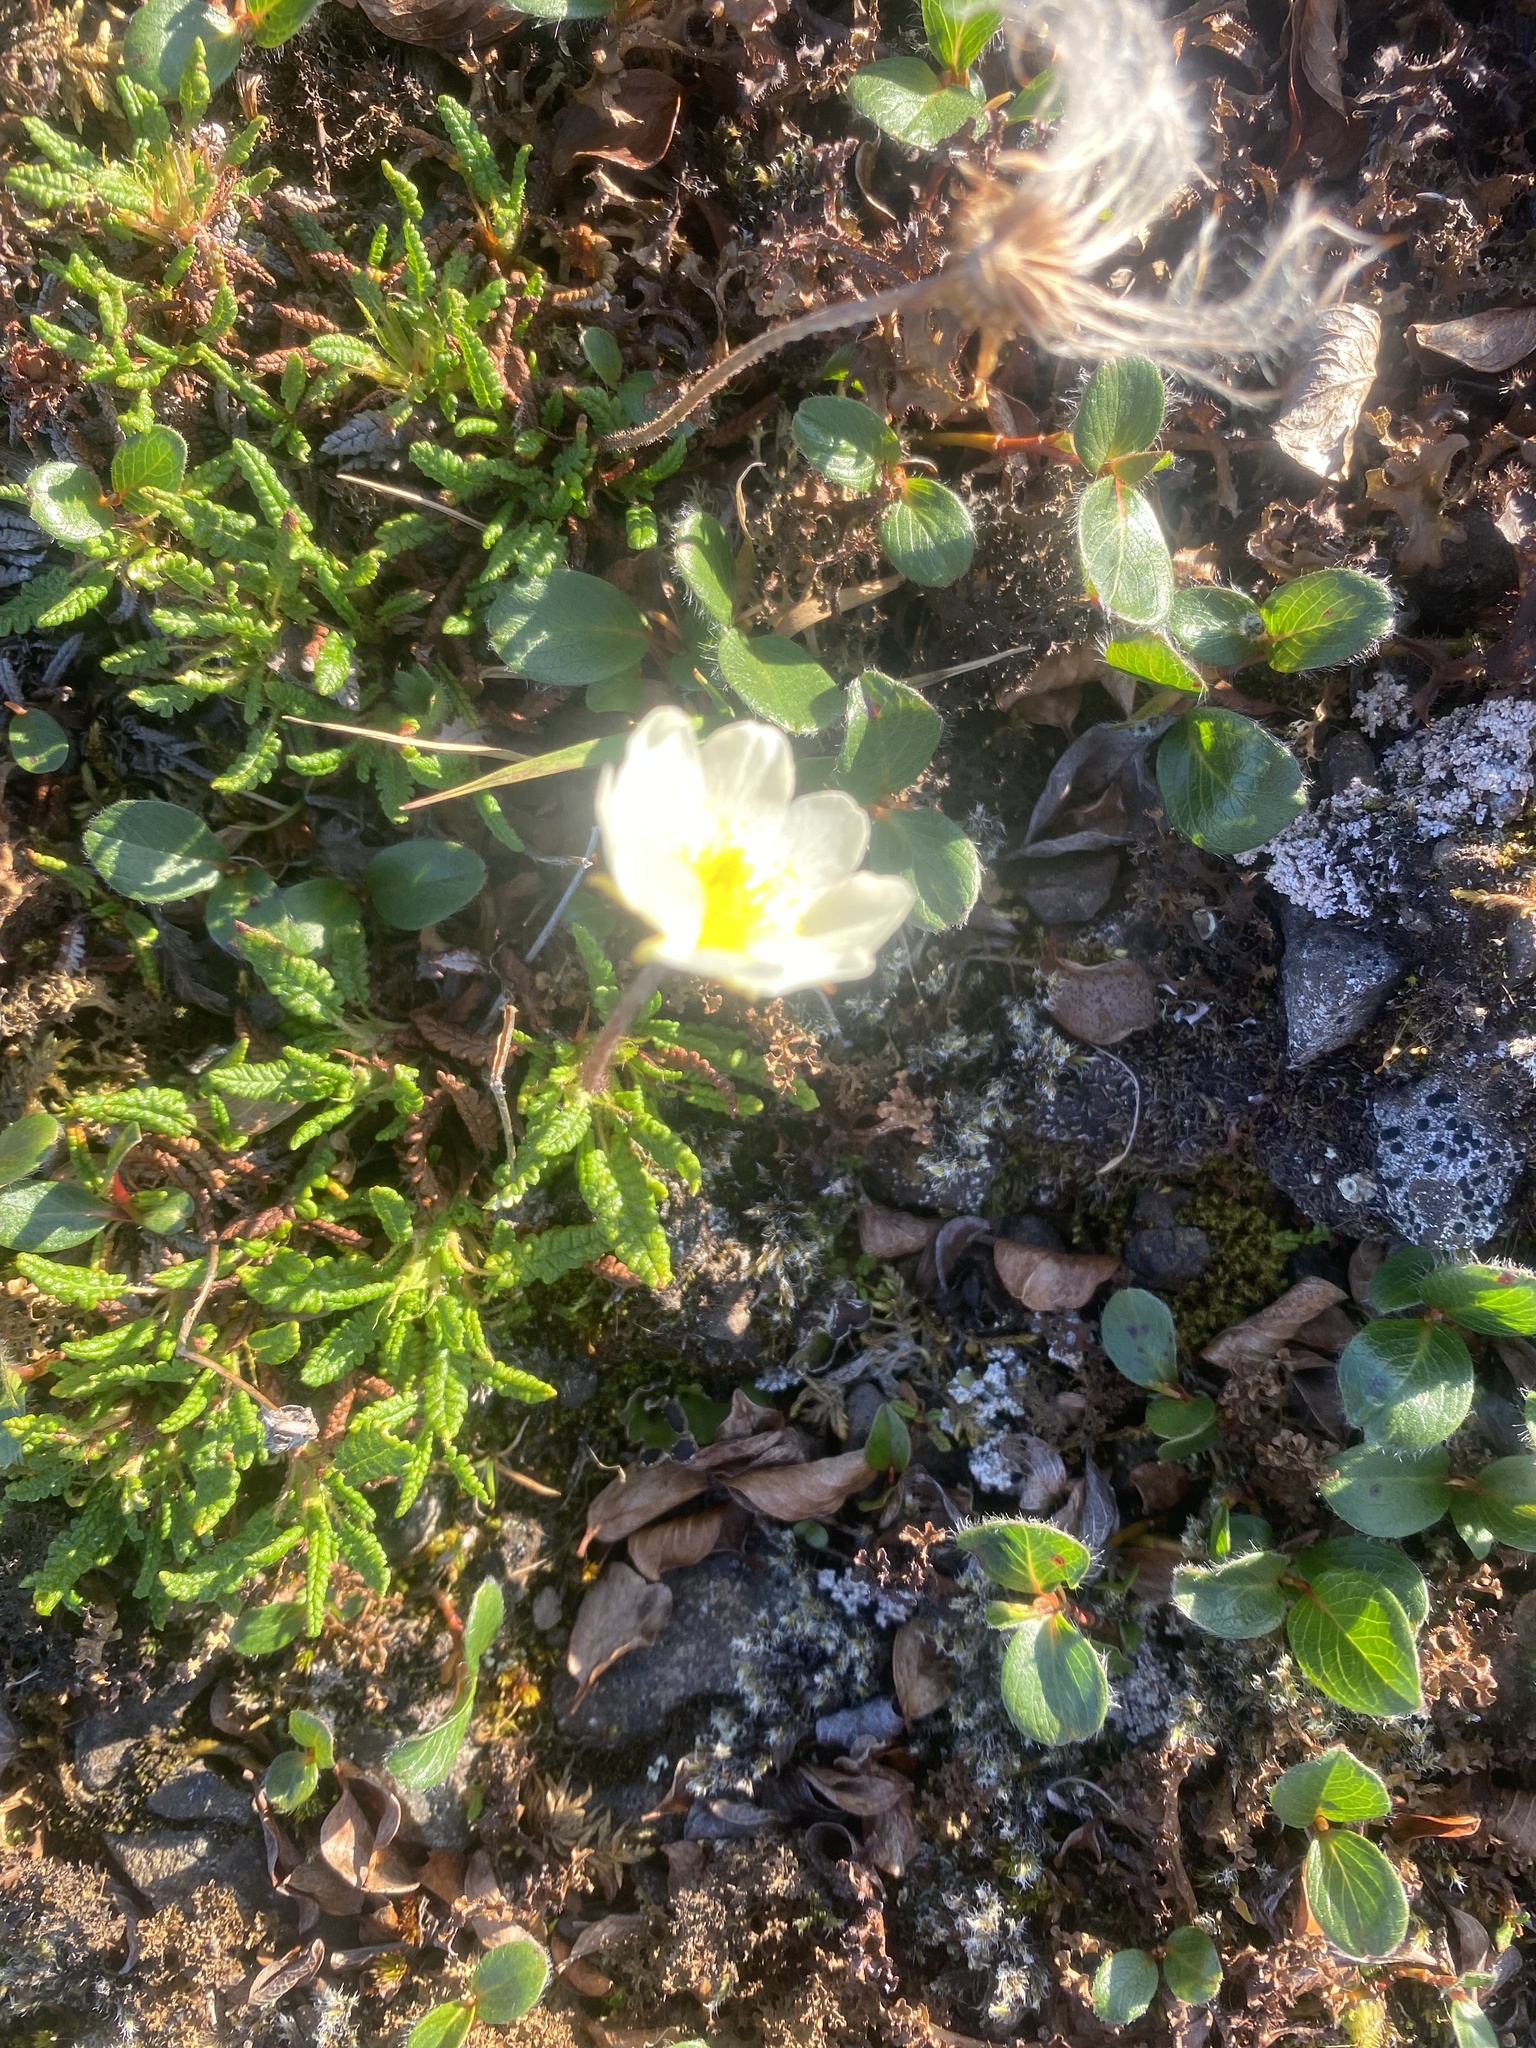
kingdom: Plantae
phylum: Tracheophyta
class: Magnoliopsida
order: Rosales
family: Rosaceae
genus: Dryas
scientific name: Dryas octopetala
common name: Eight-petal mountain-avens
